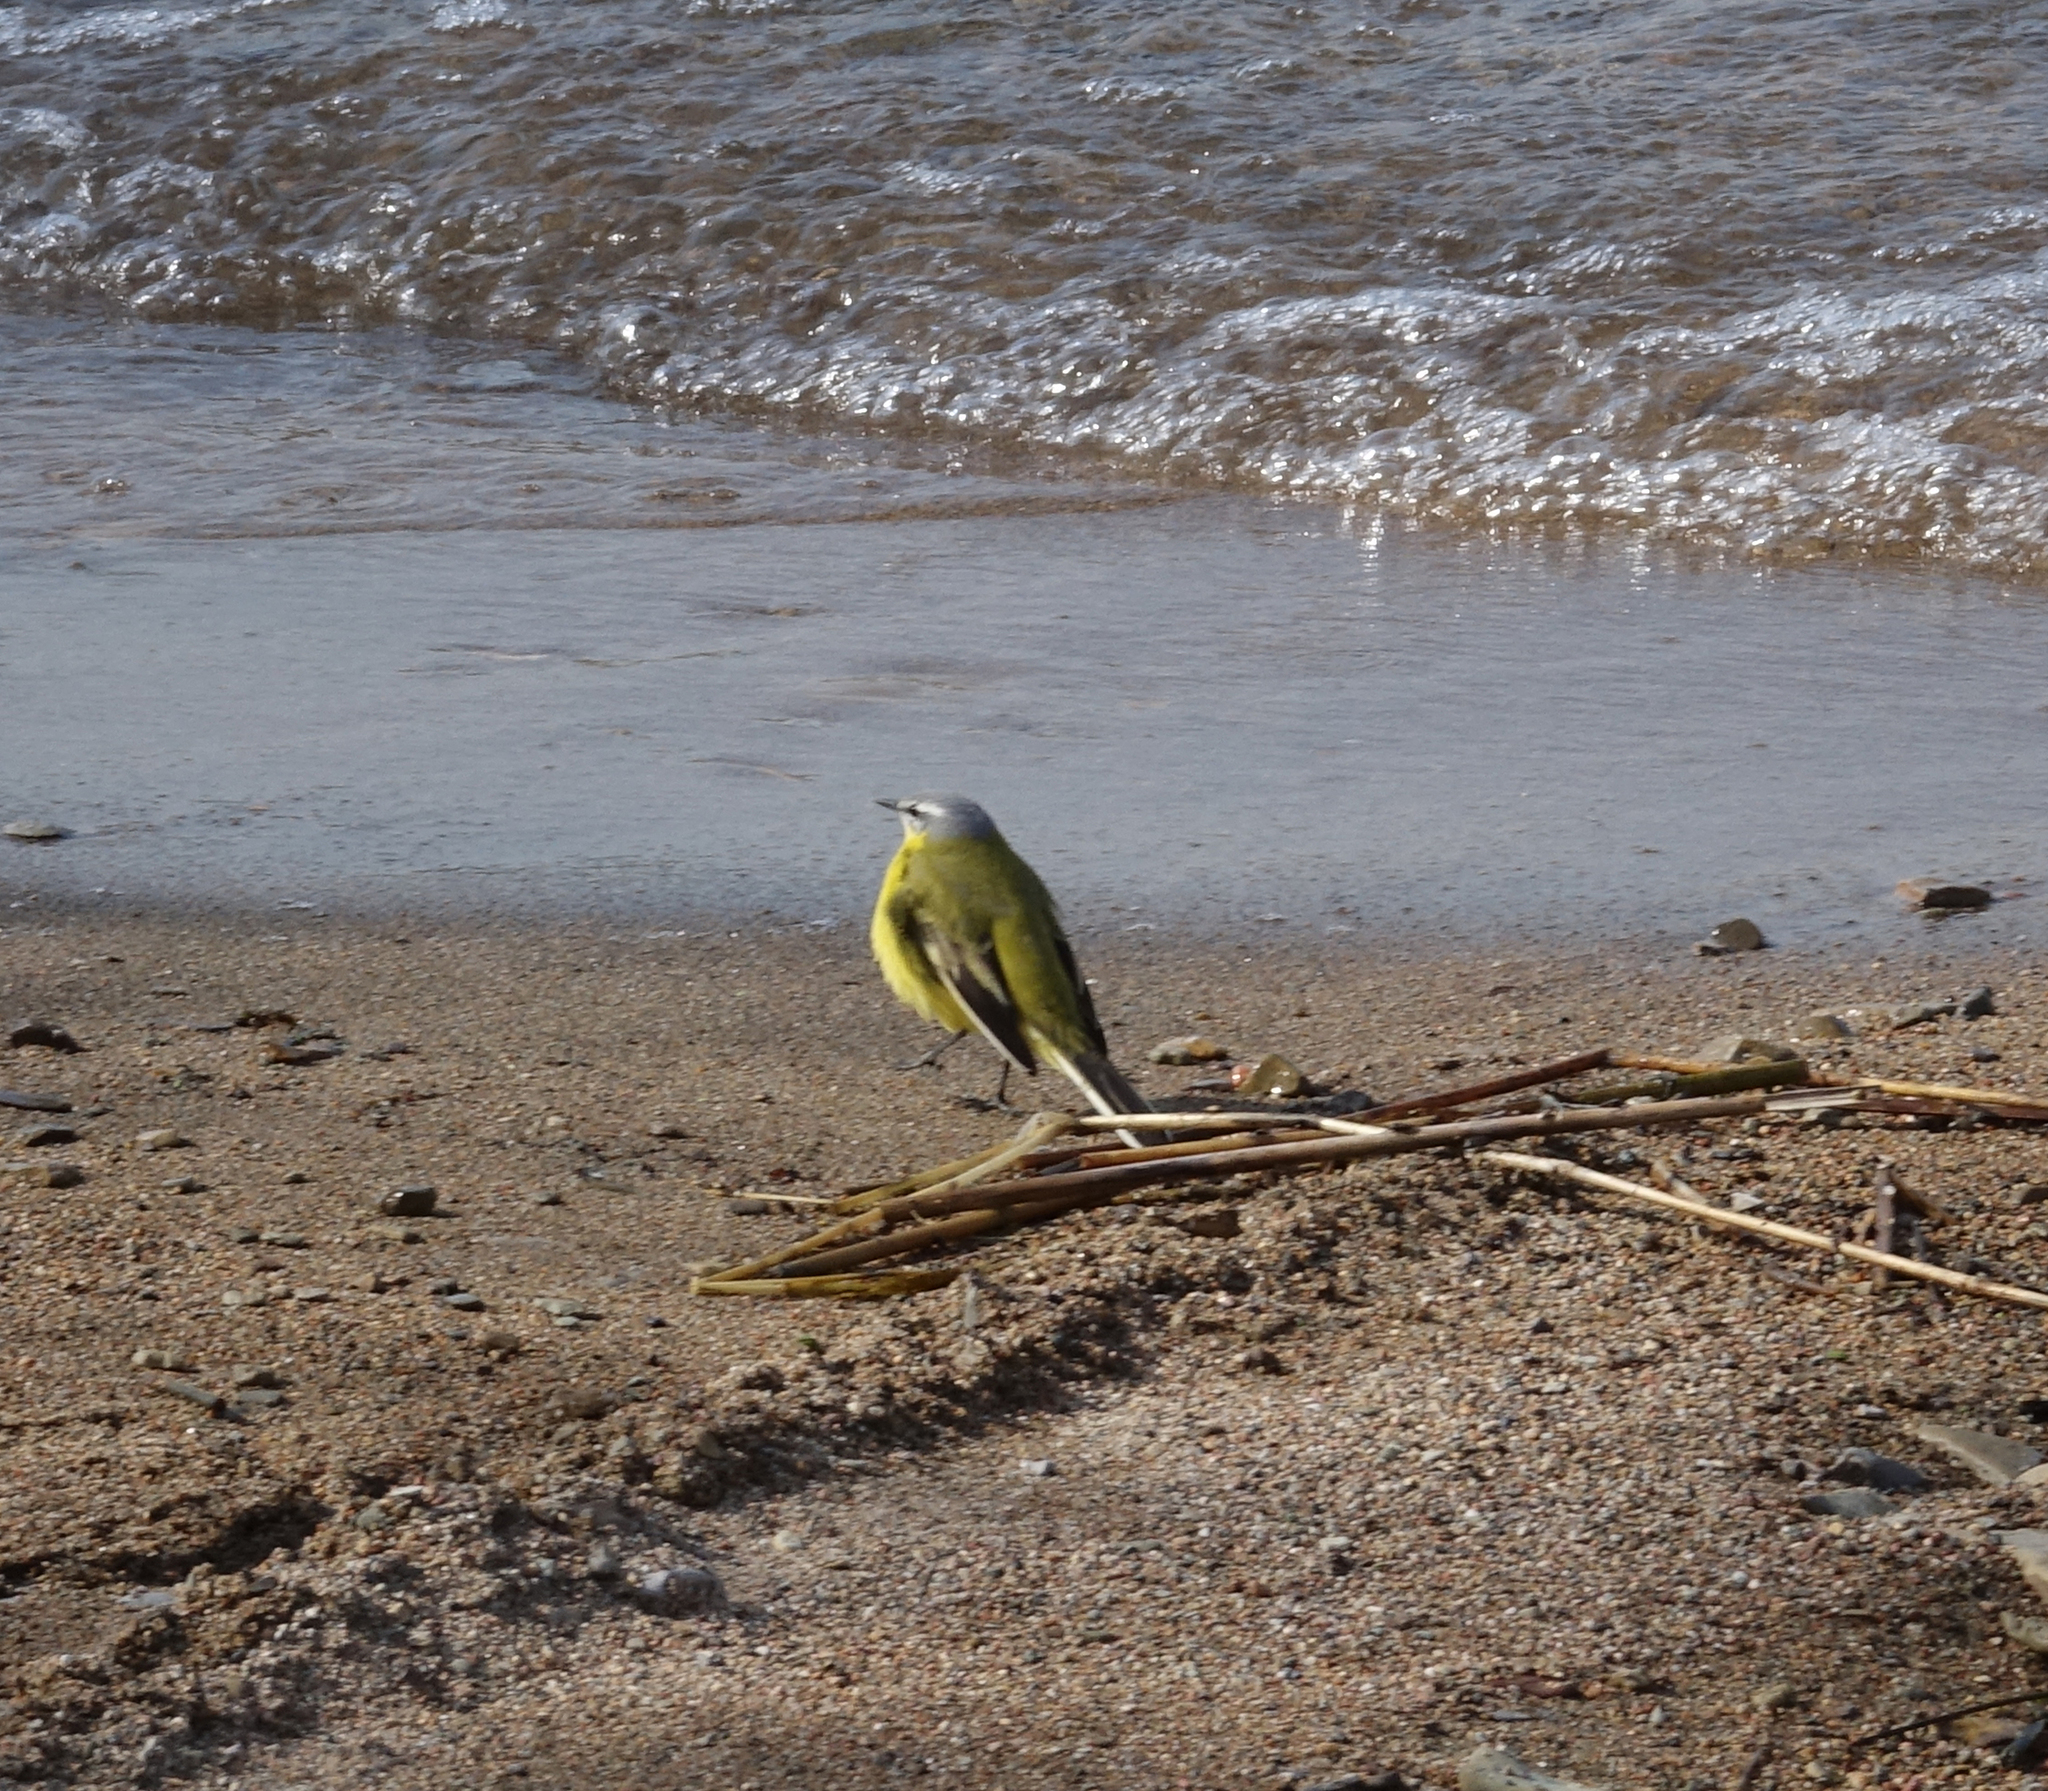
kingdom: Animalia
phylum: Chordata
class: Aves
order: Passeriformes
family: Motacillidae
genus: Motacilla
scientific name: Motacilla flava
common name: Western yellow wagtail
